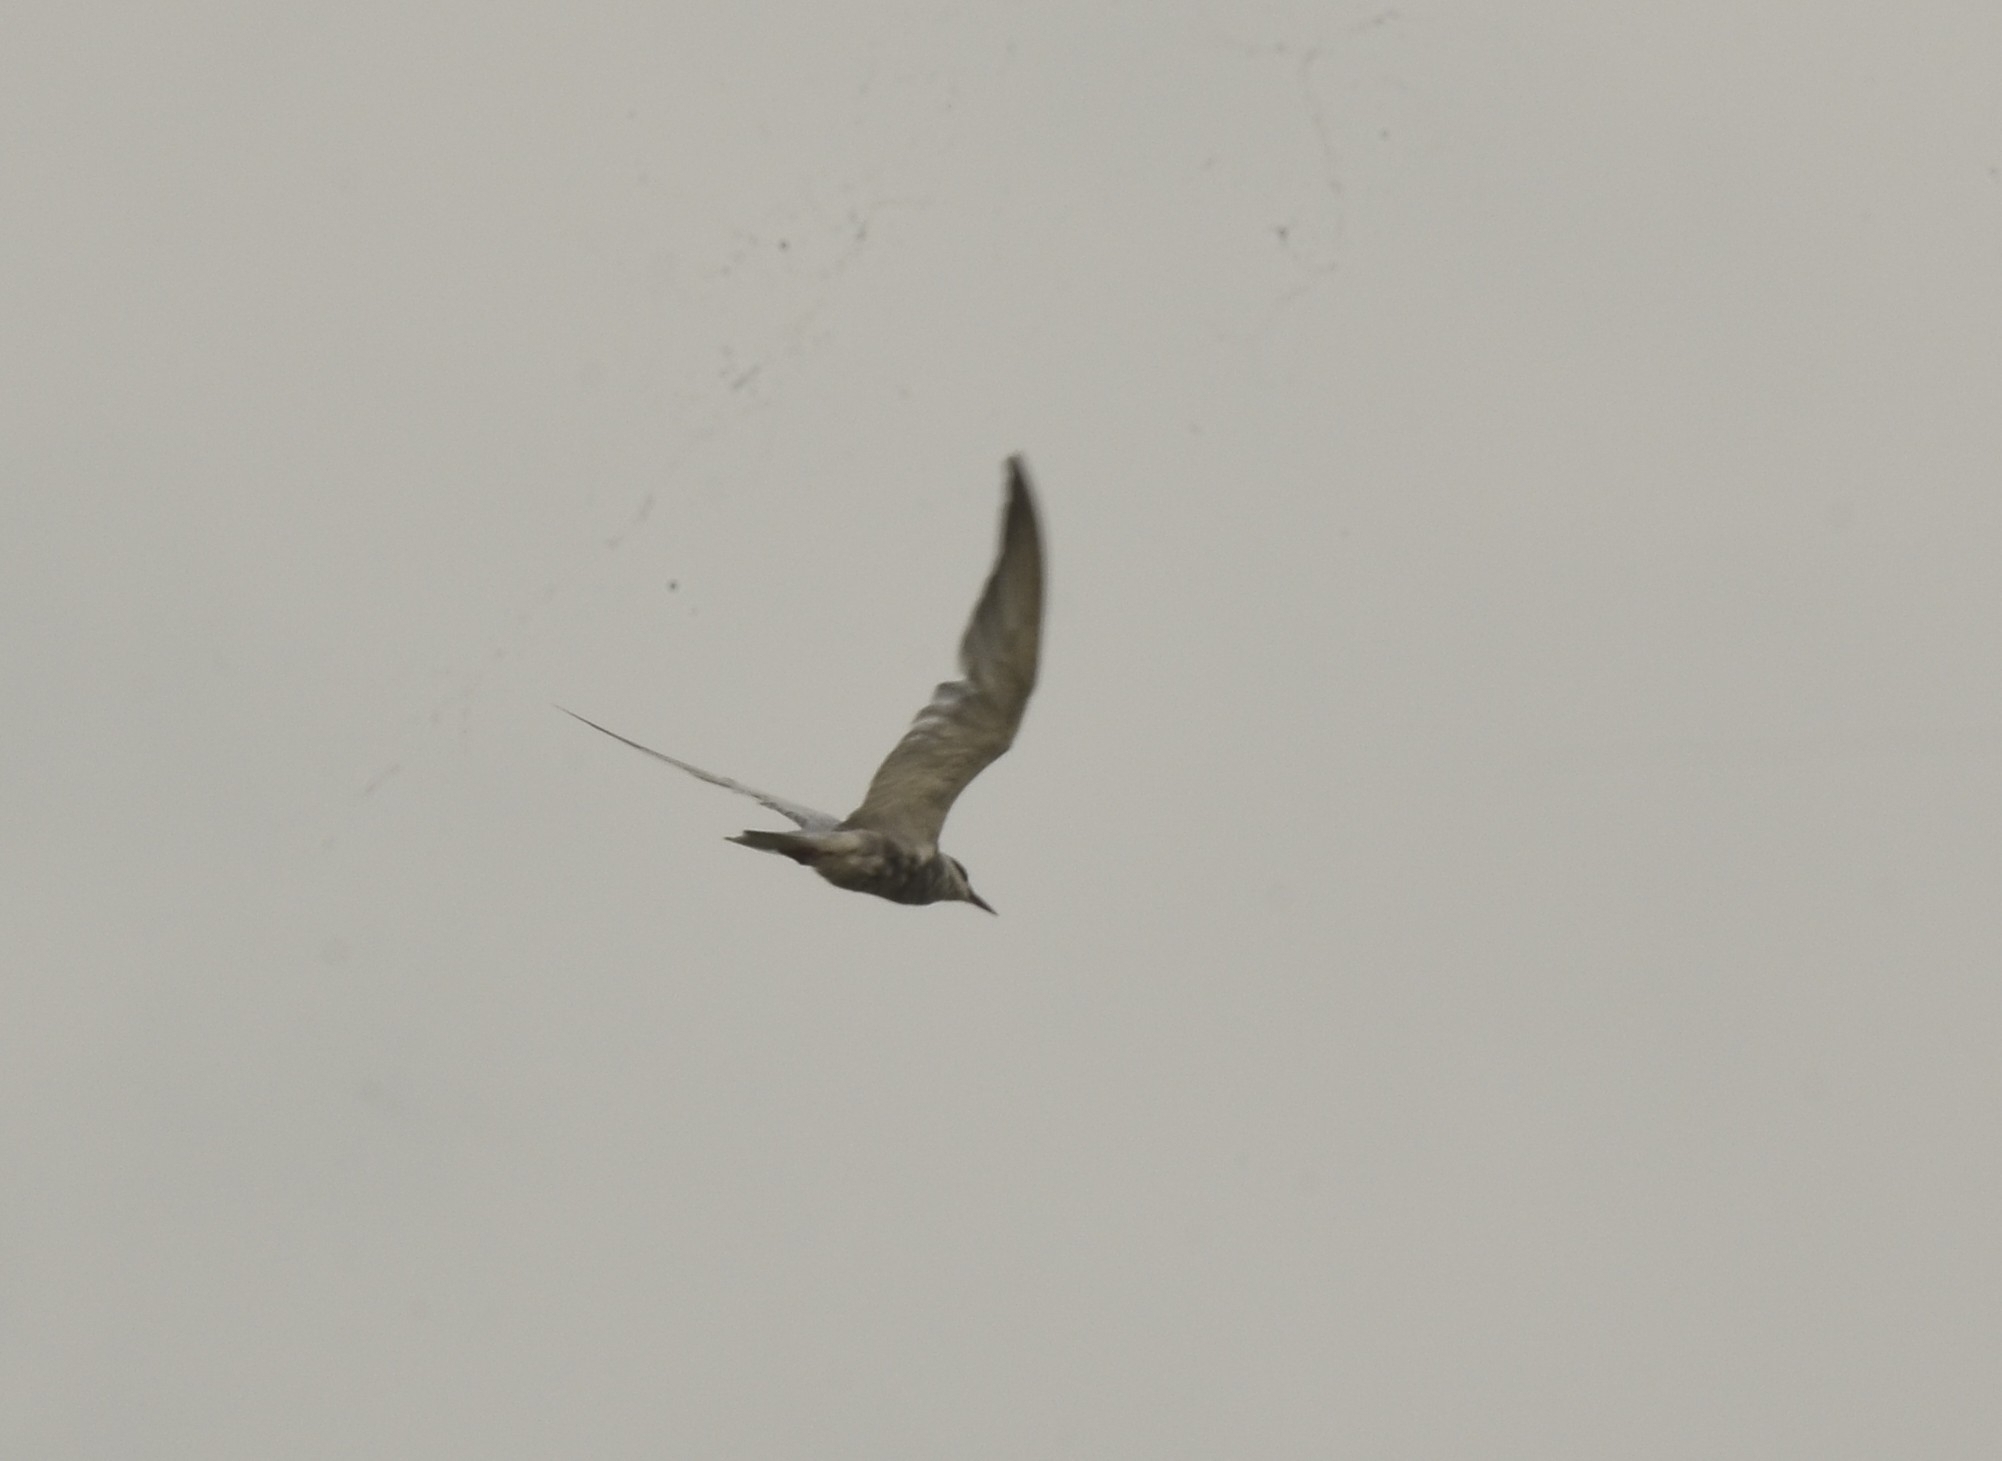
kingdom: Animalia
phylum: Chordata
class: Aves
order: Charadriiformes
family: Laridae
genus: Chlidonias
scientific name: Chlidonias hybrida
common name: Whiskered tern
